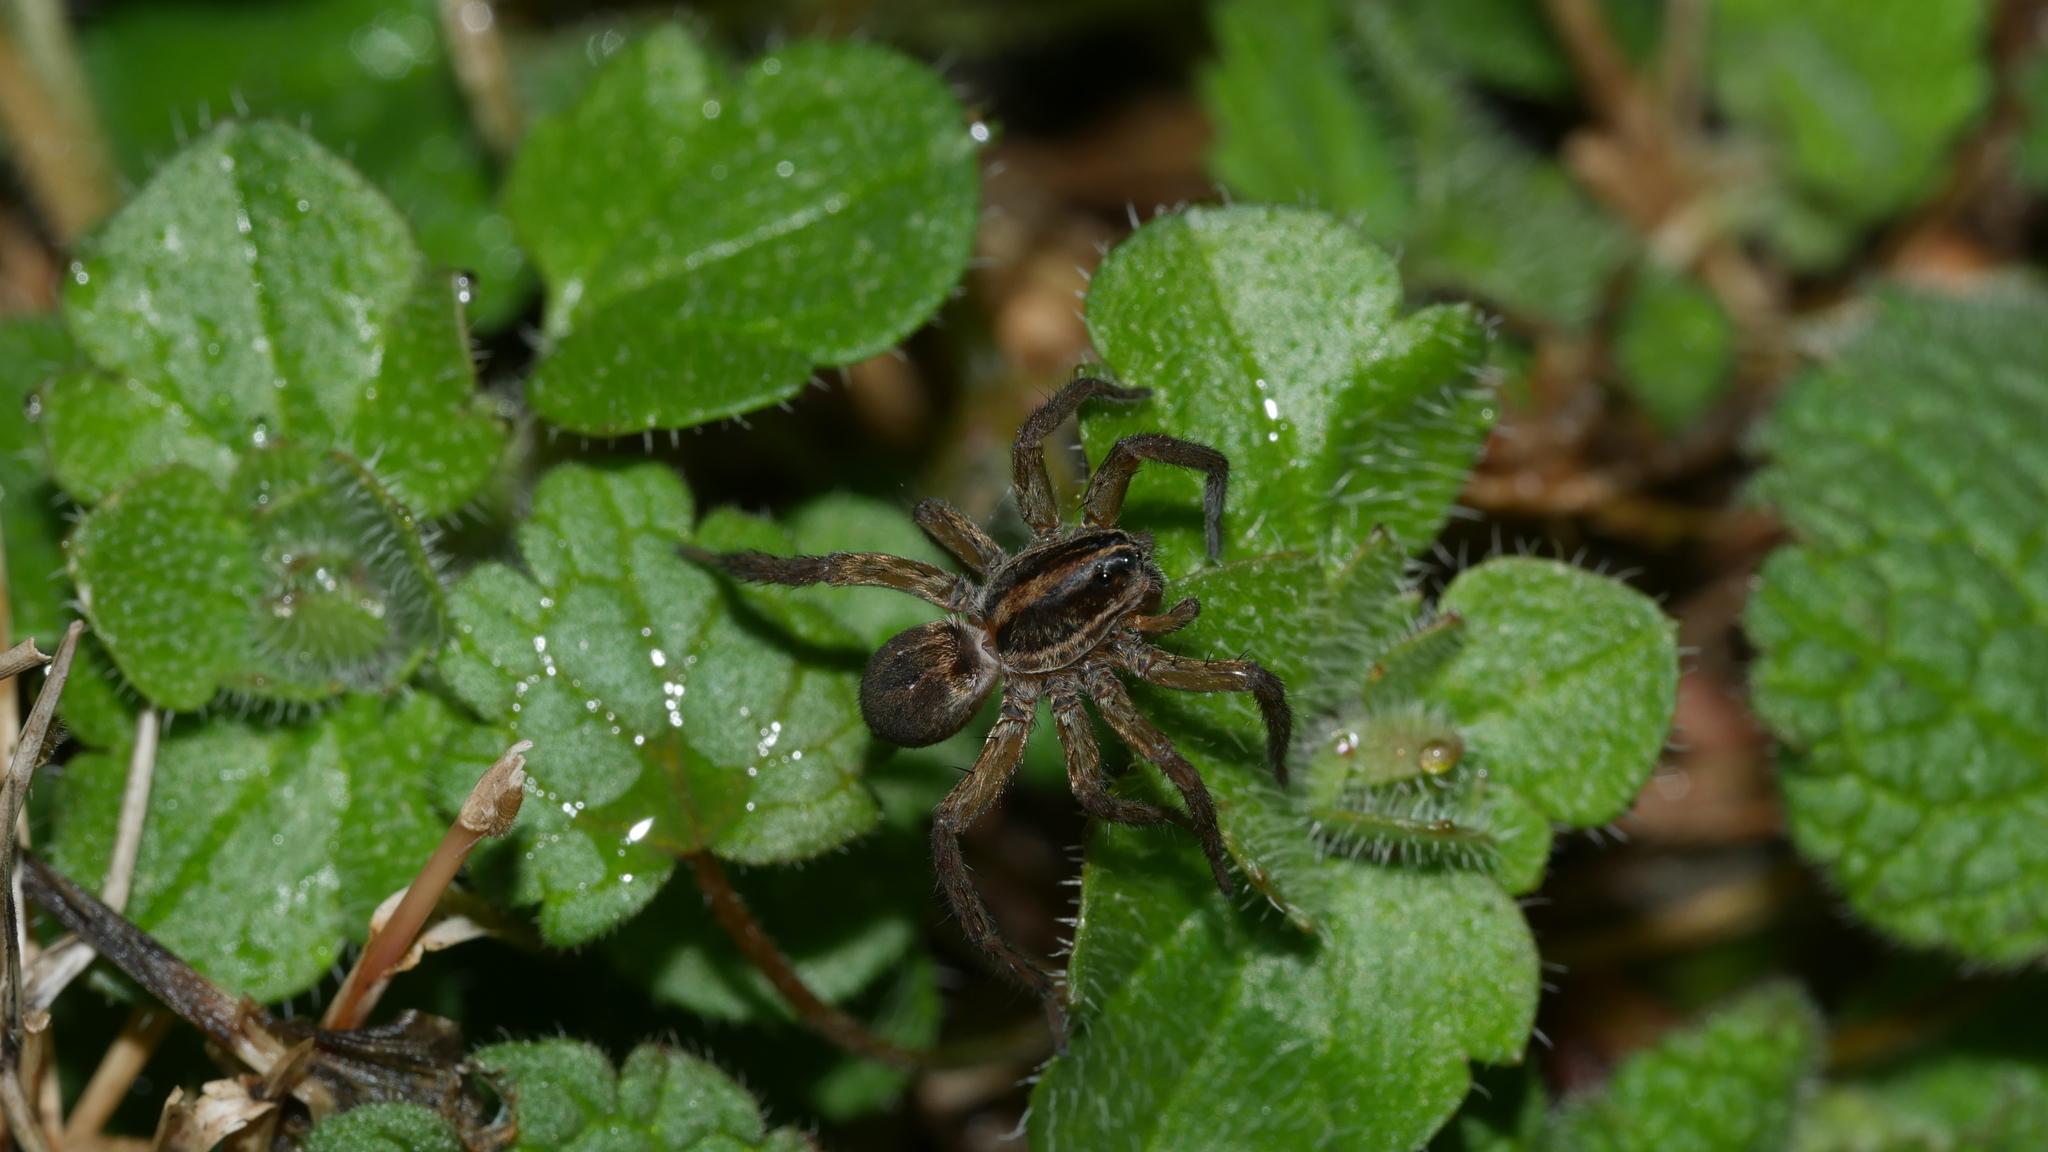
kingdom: Animalia
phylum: Arthropoda
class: Arachnida
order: Araneae
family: Lycosidae
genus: Tigrosa
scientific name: Tigrosa helluo
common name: Wetland giant wolf spider
